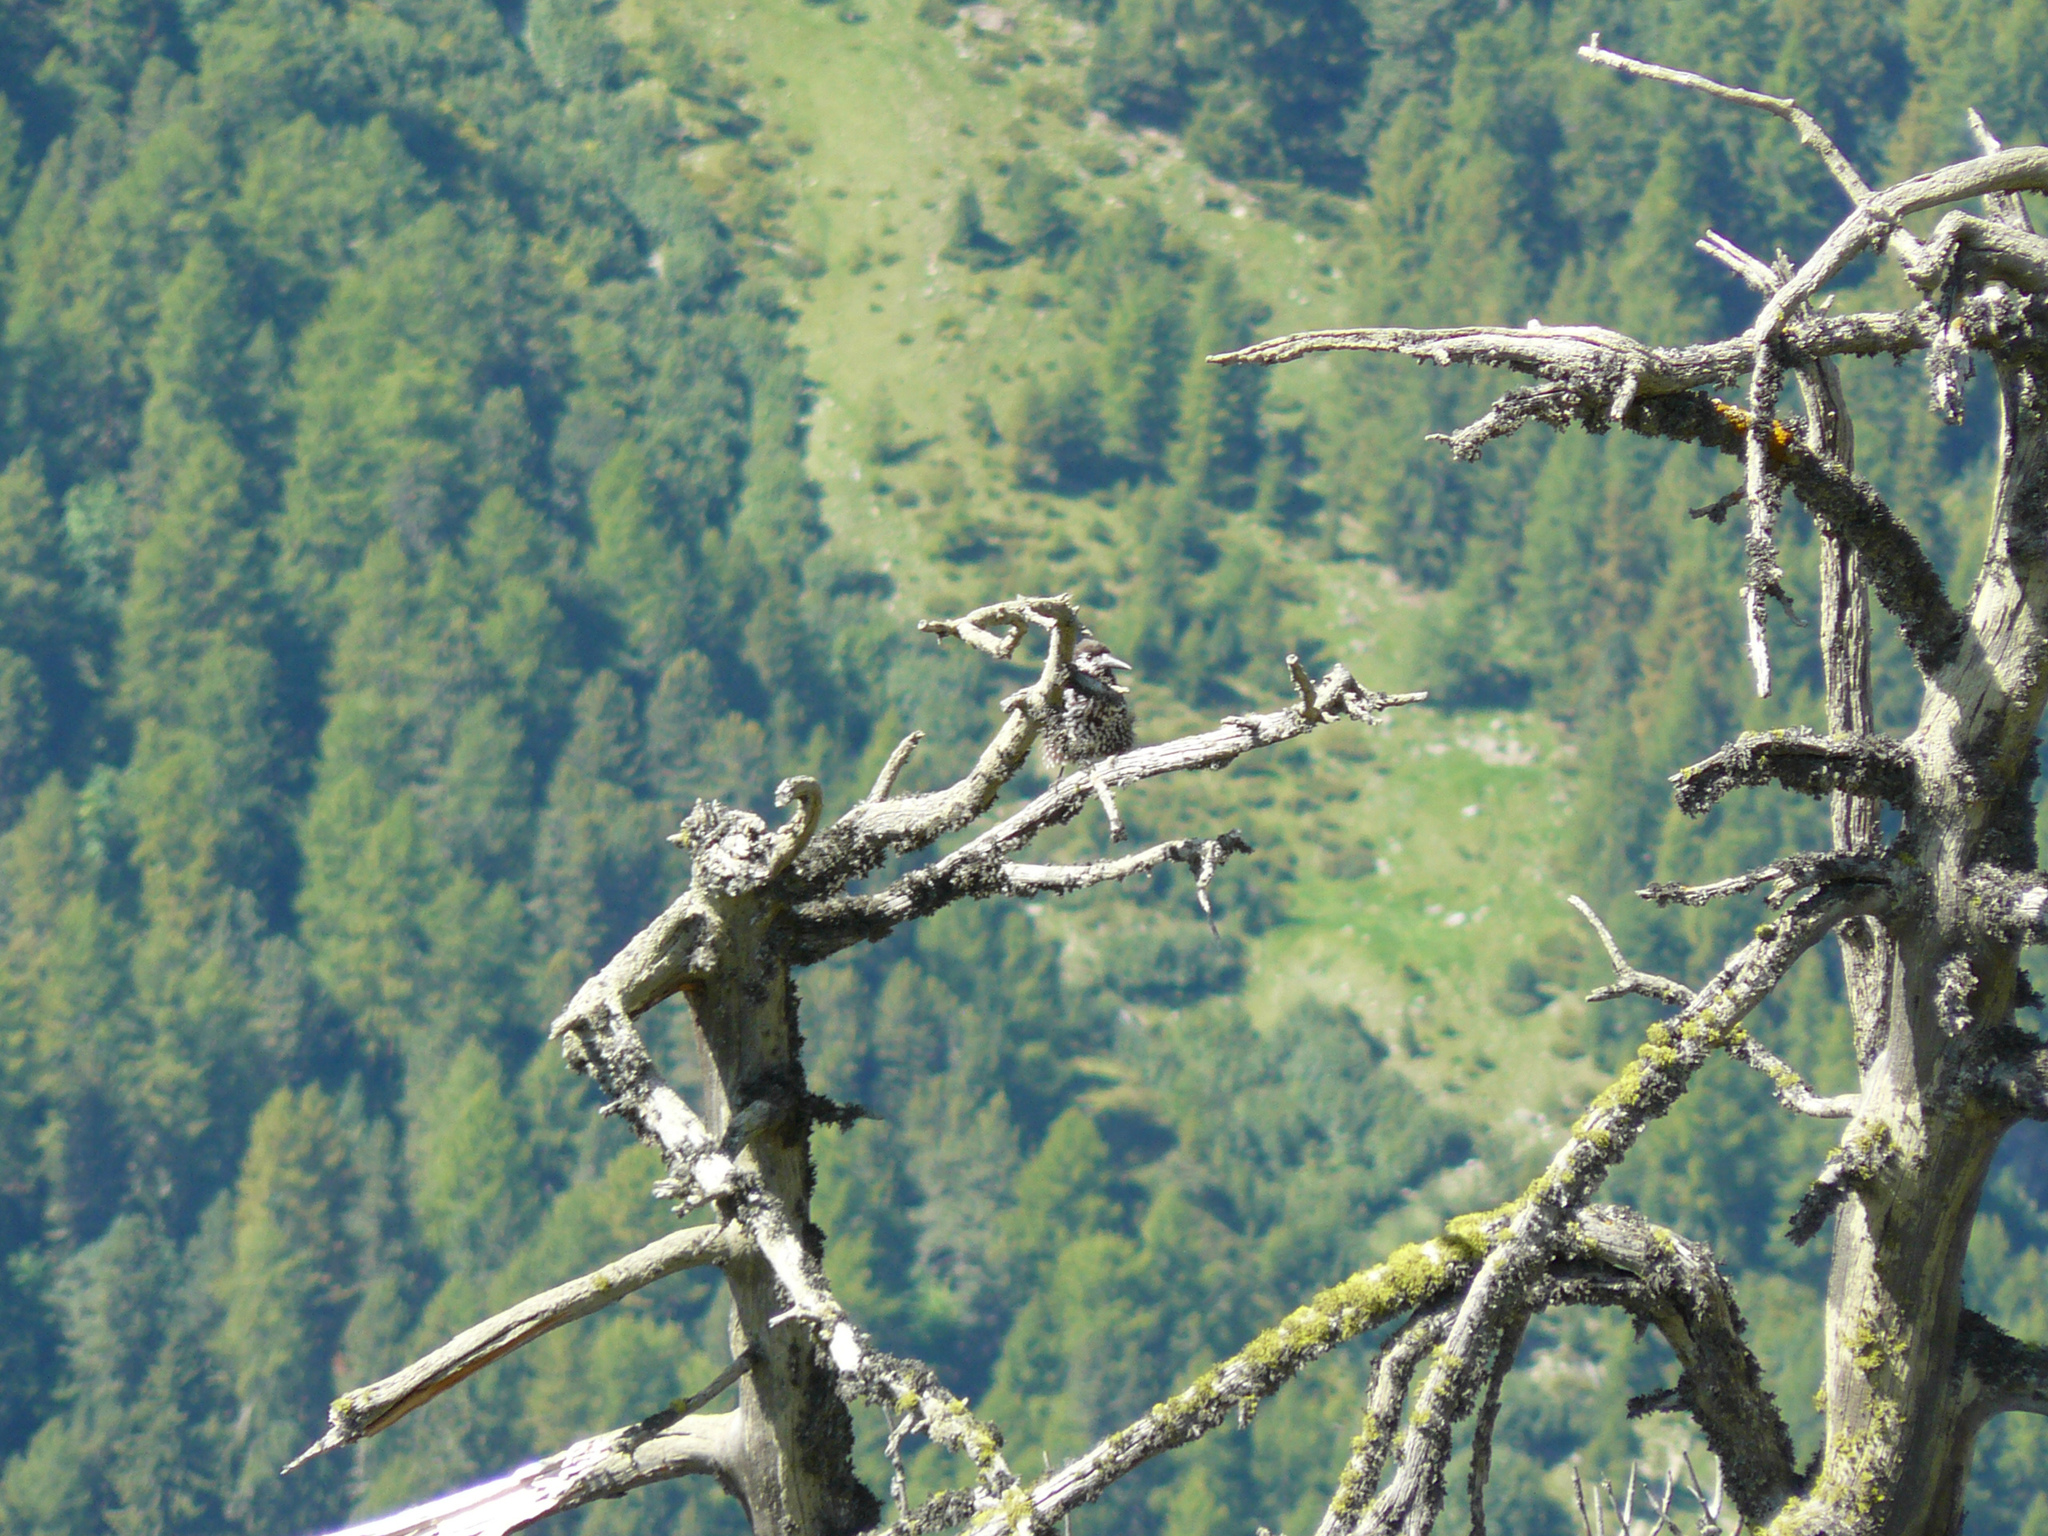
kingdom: Animalia
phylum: Chordata
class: Aves
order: Passeriformes
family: Corvidae
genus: Nucifraga
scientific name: Nucifraga caryocatactes
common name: Spotted nutcracker
